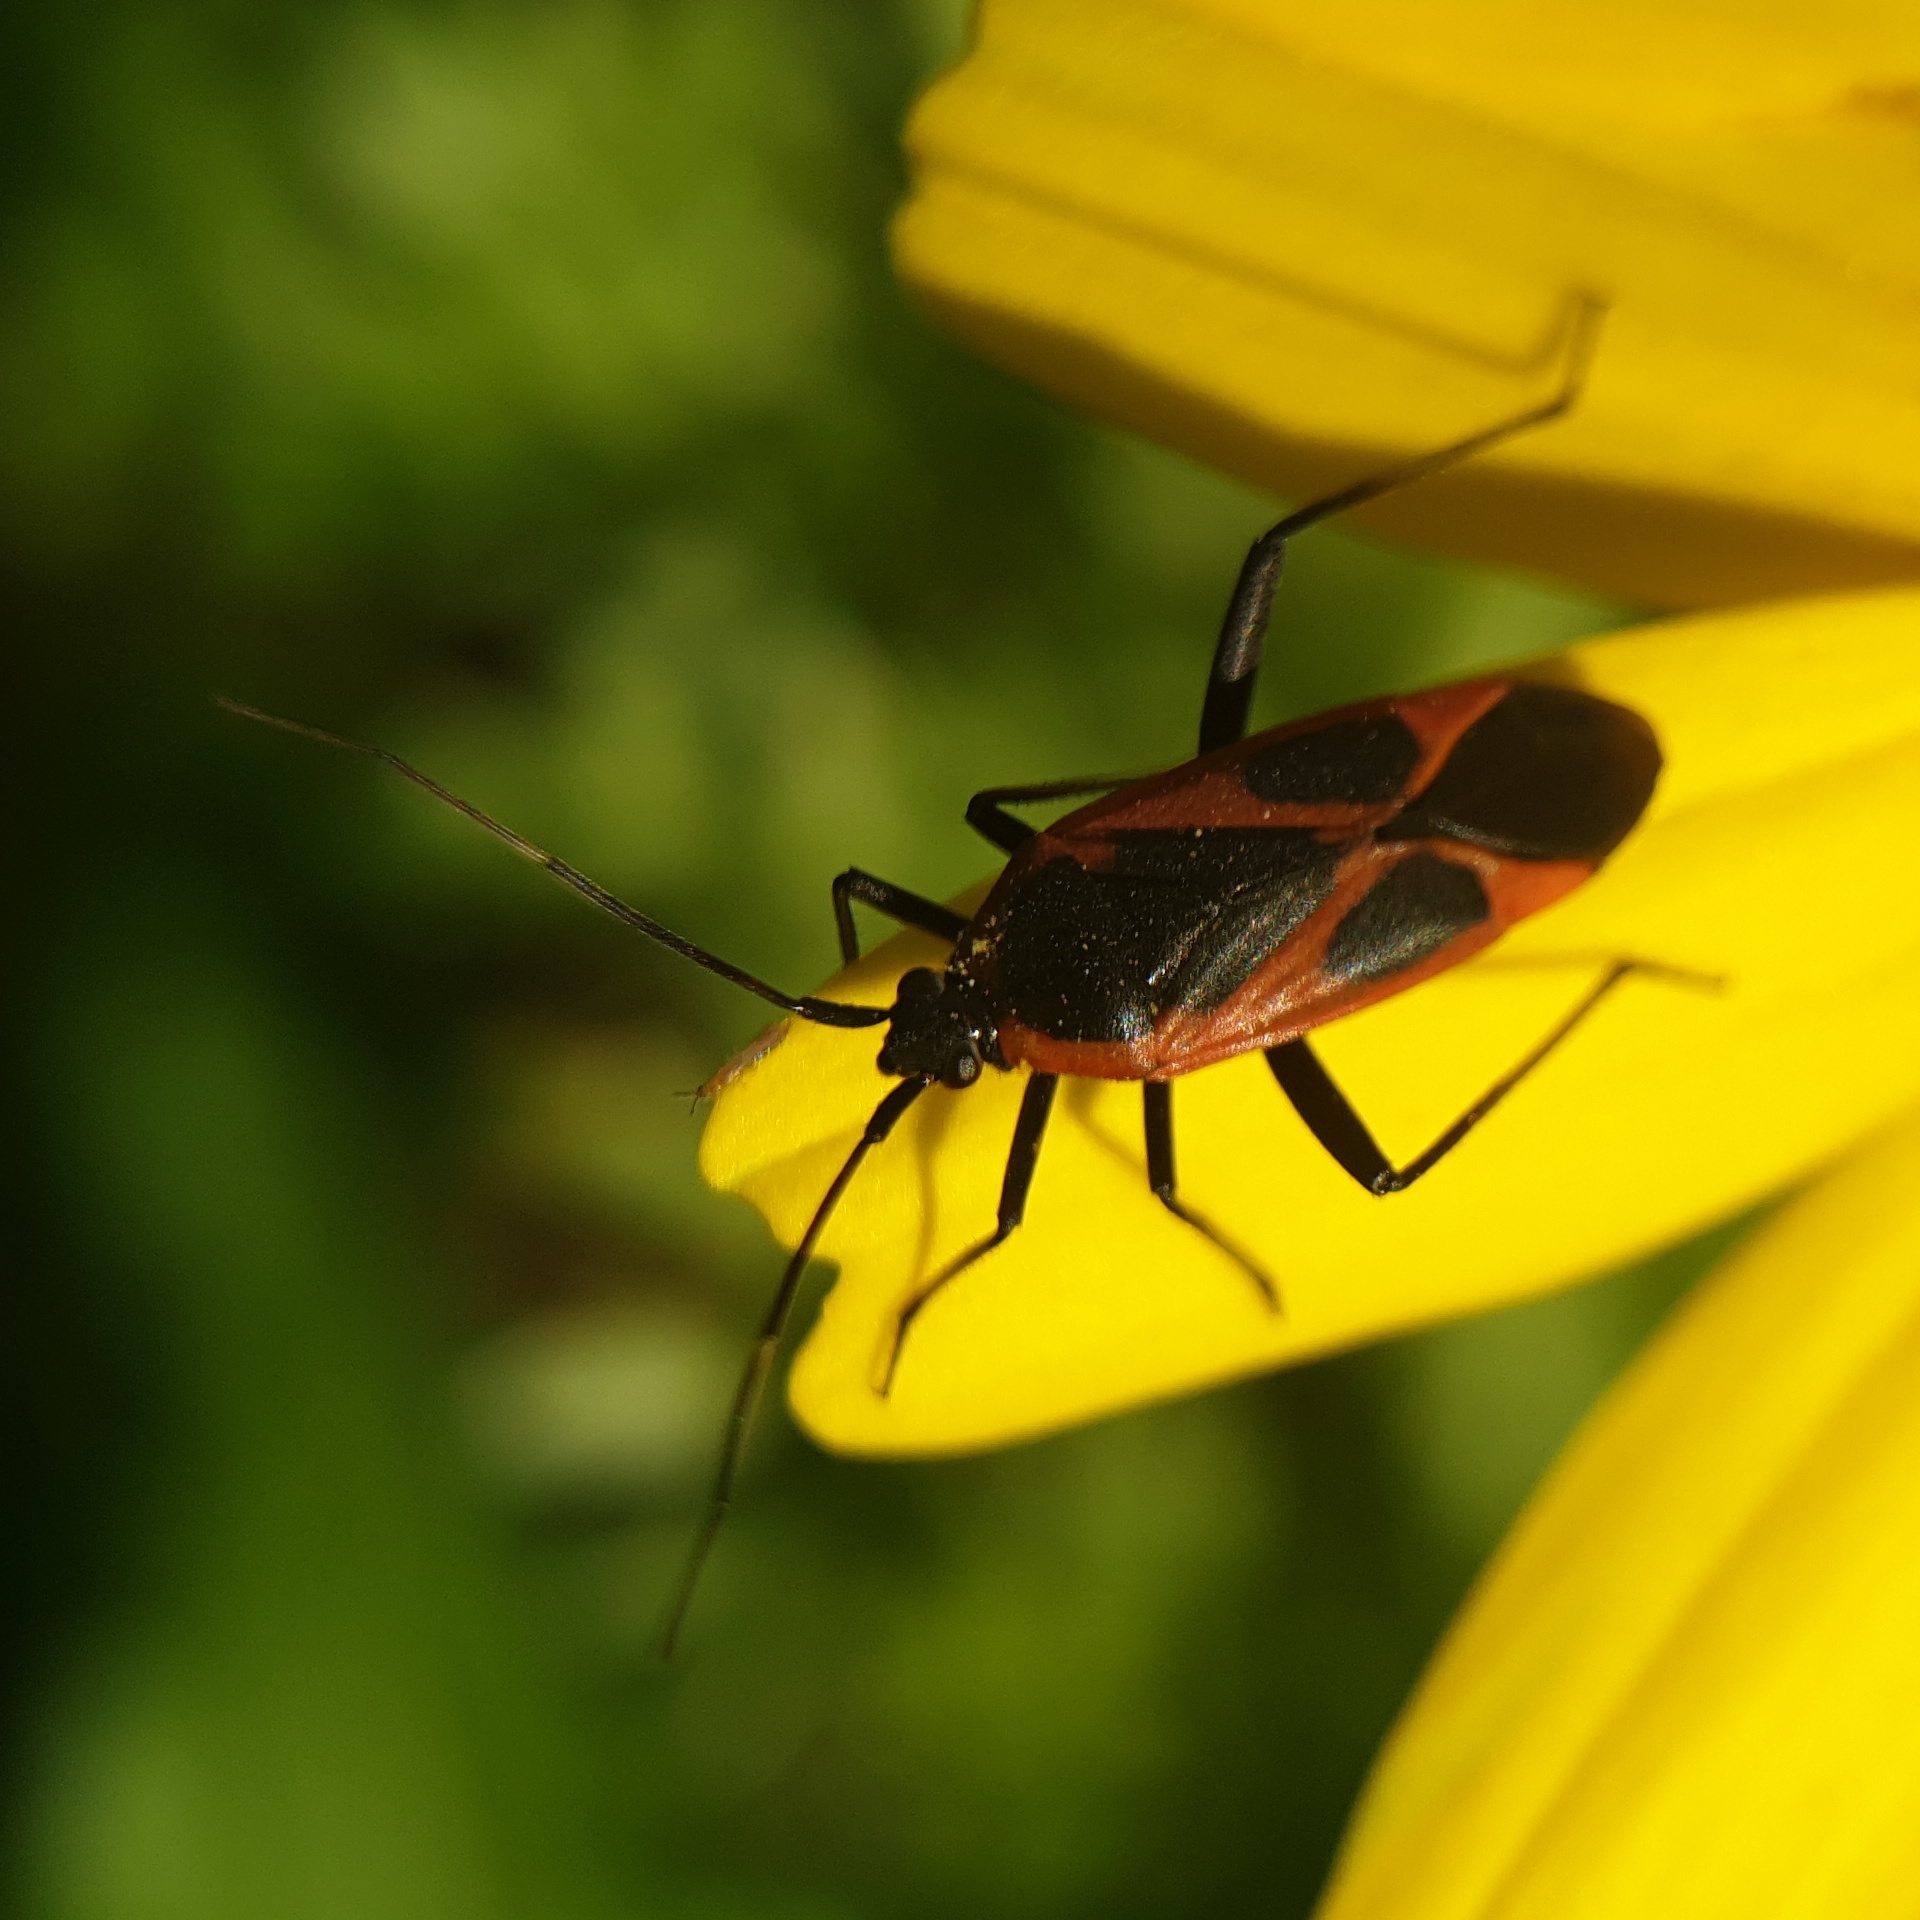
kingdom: Animalia
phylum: Arthropoda
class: Insecta
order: Hemiptera
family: Miridae
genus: Calocoris
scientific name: Calocoris nemoralis
